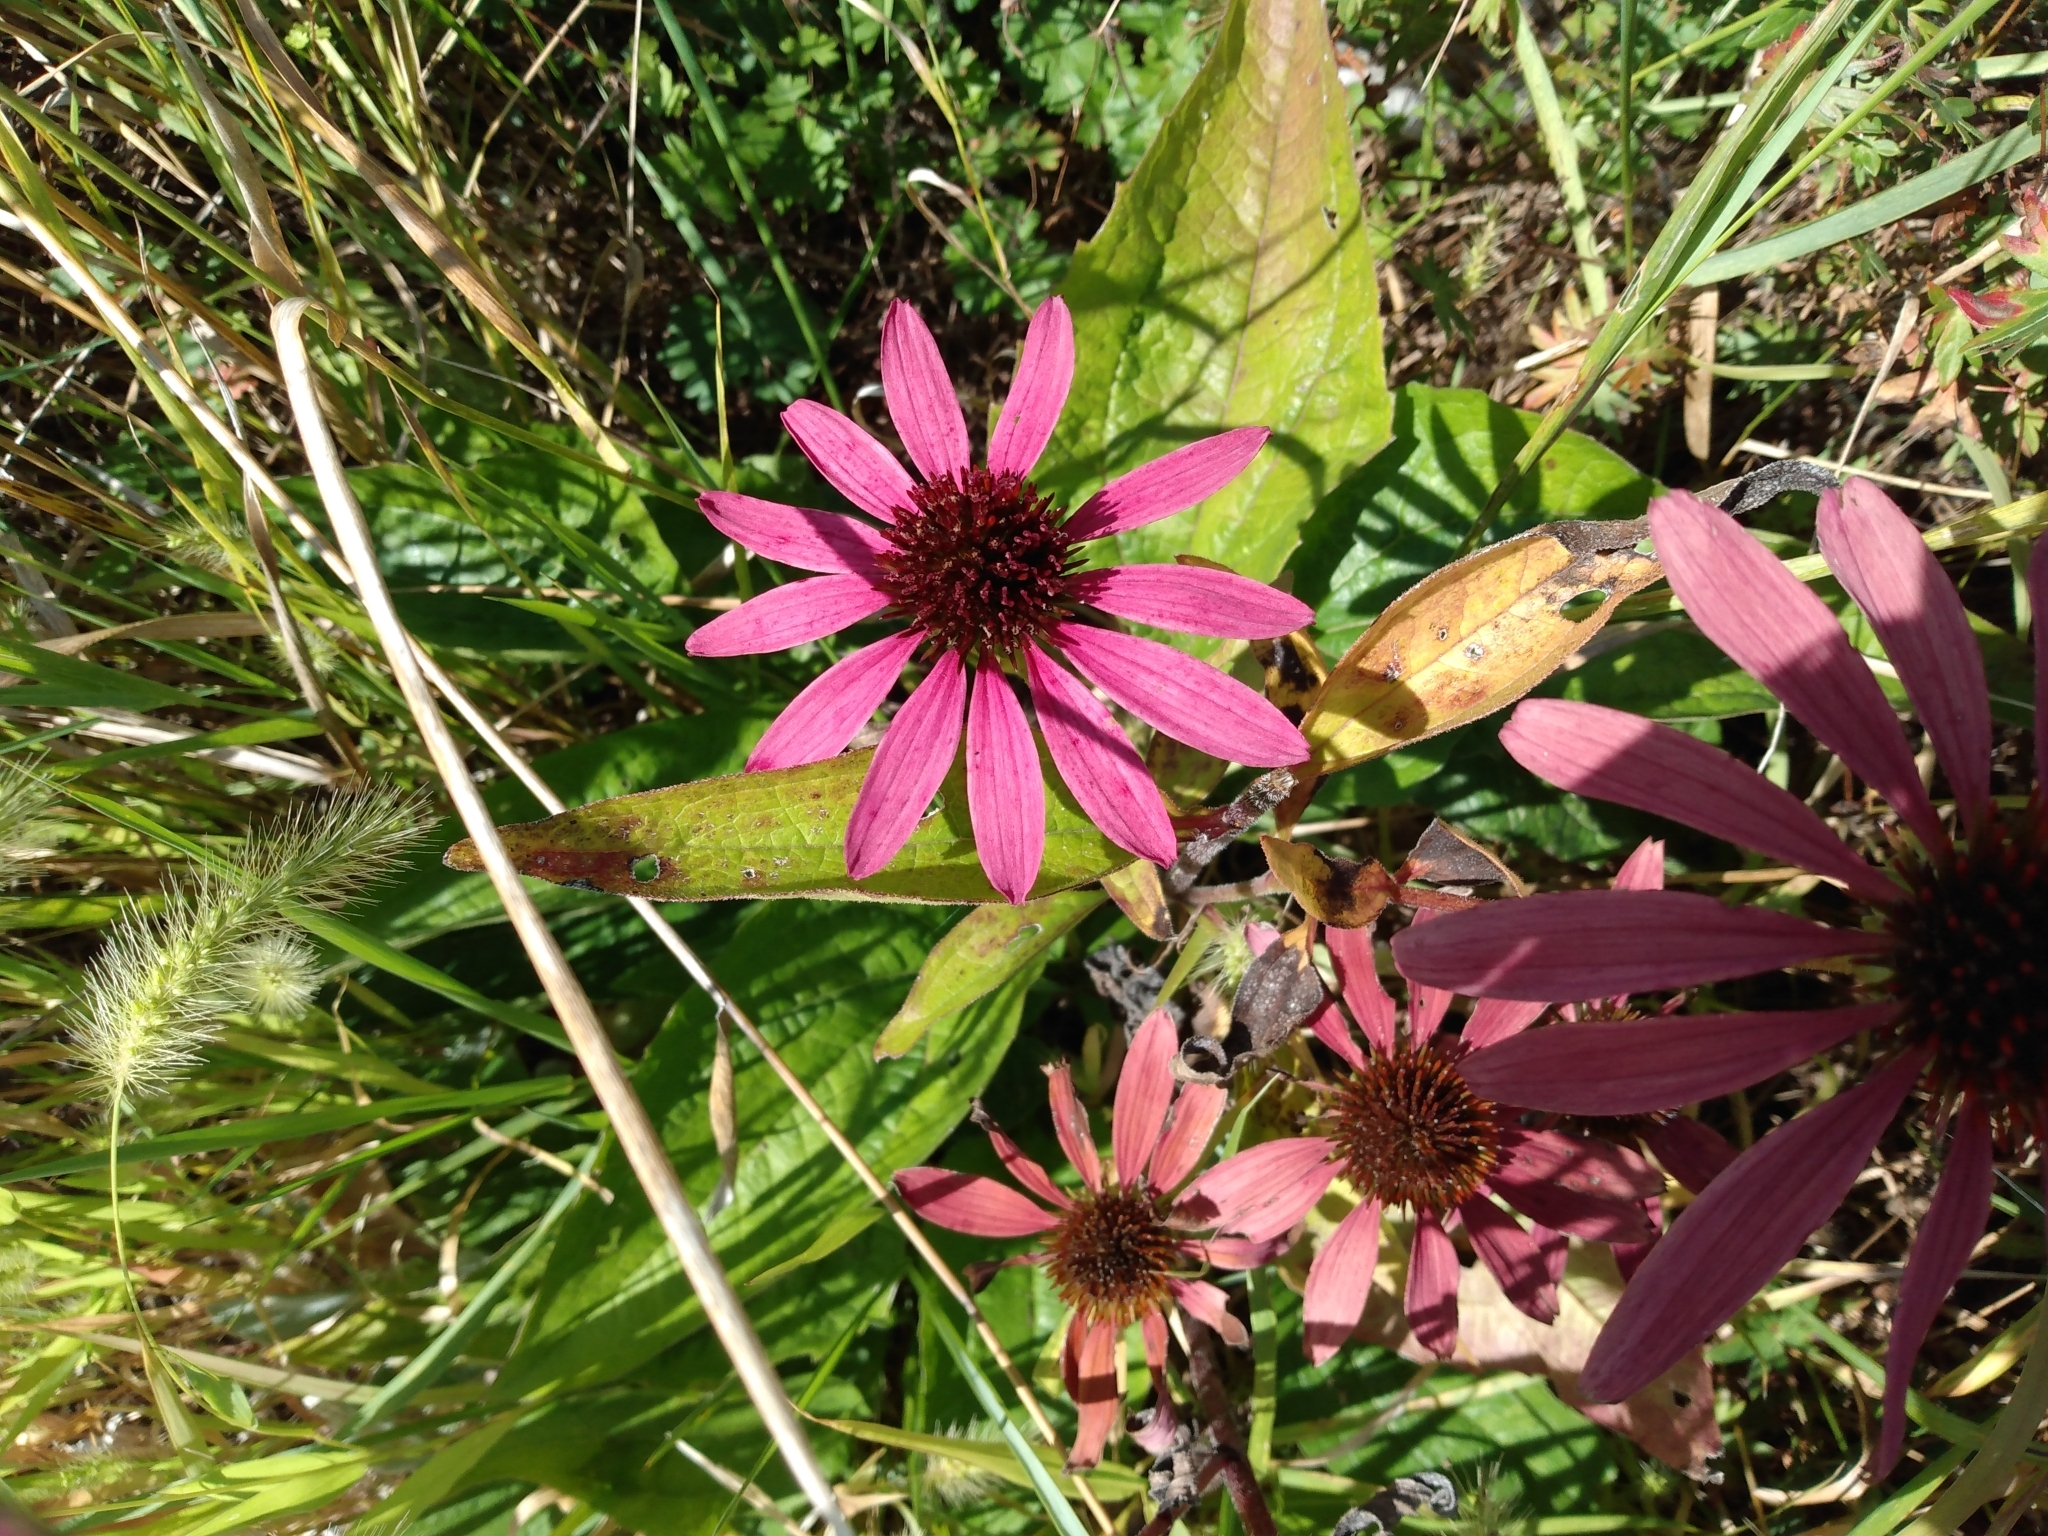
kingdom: Plantae
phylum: Tracheophyta
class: Magnoliopsida
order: Asterales
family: Asteraceae
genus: Echinacea
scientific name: Echinacea purpurea
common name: Broad-leaved purple coneflower
